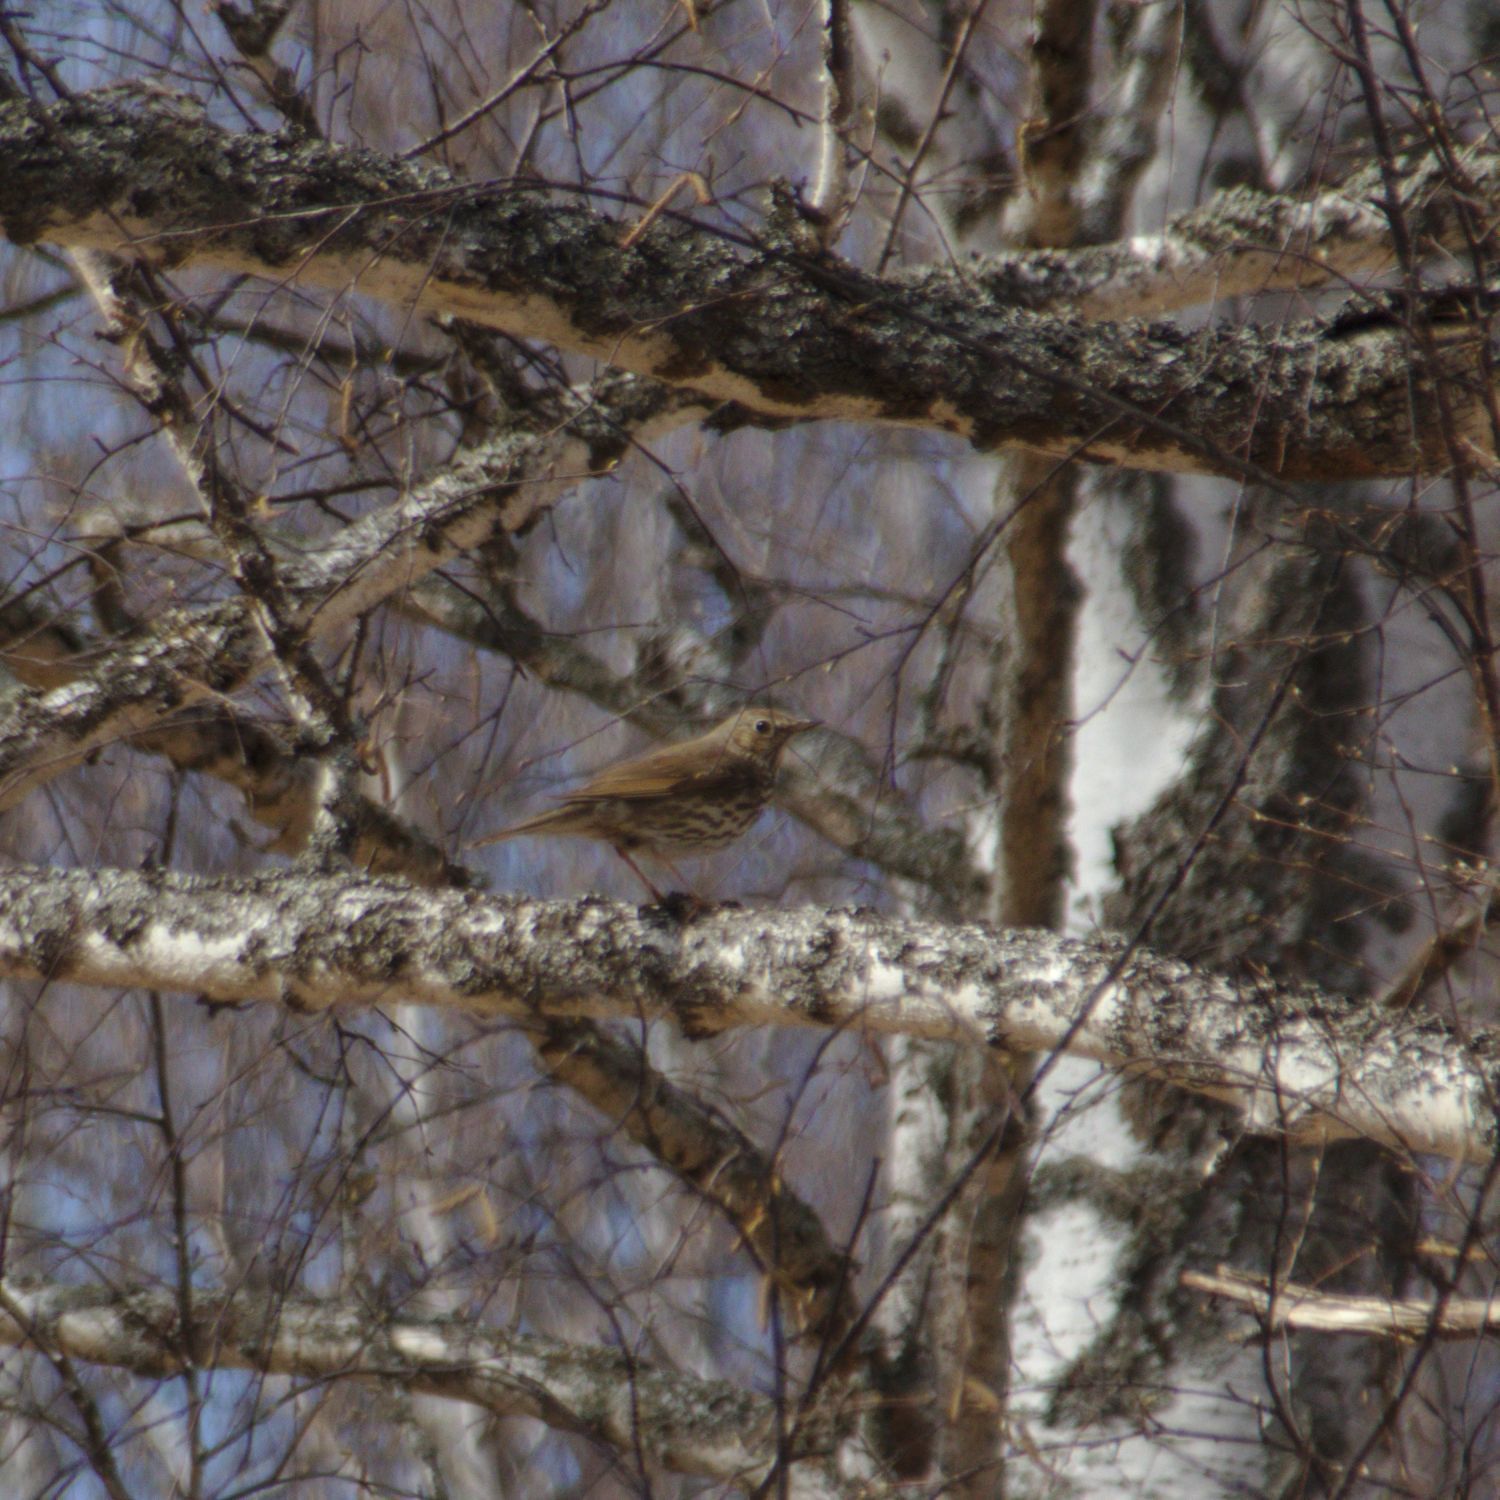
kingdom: Animalia
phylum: Chordata
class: Aves
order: Passeriformes
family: Turdidae
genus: Turdus
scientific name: Turdus philomelos
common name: Song thrush
